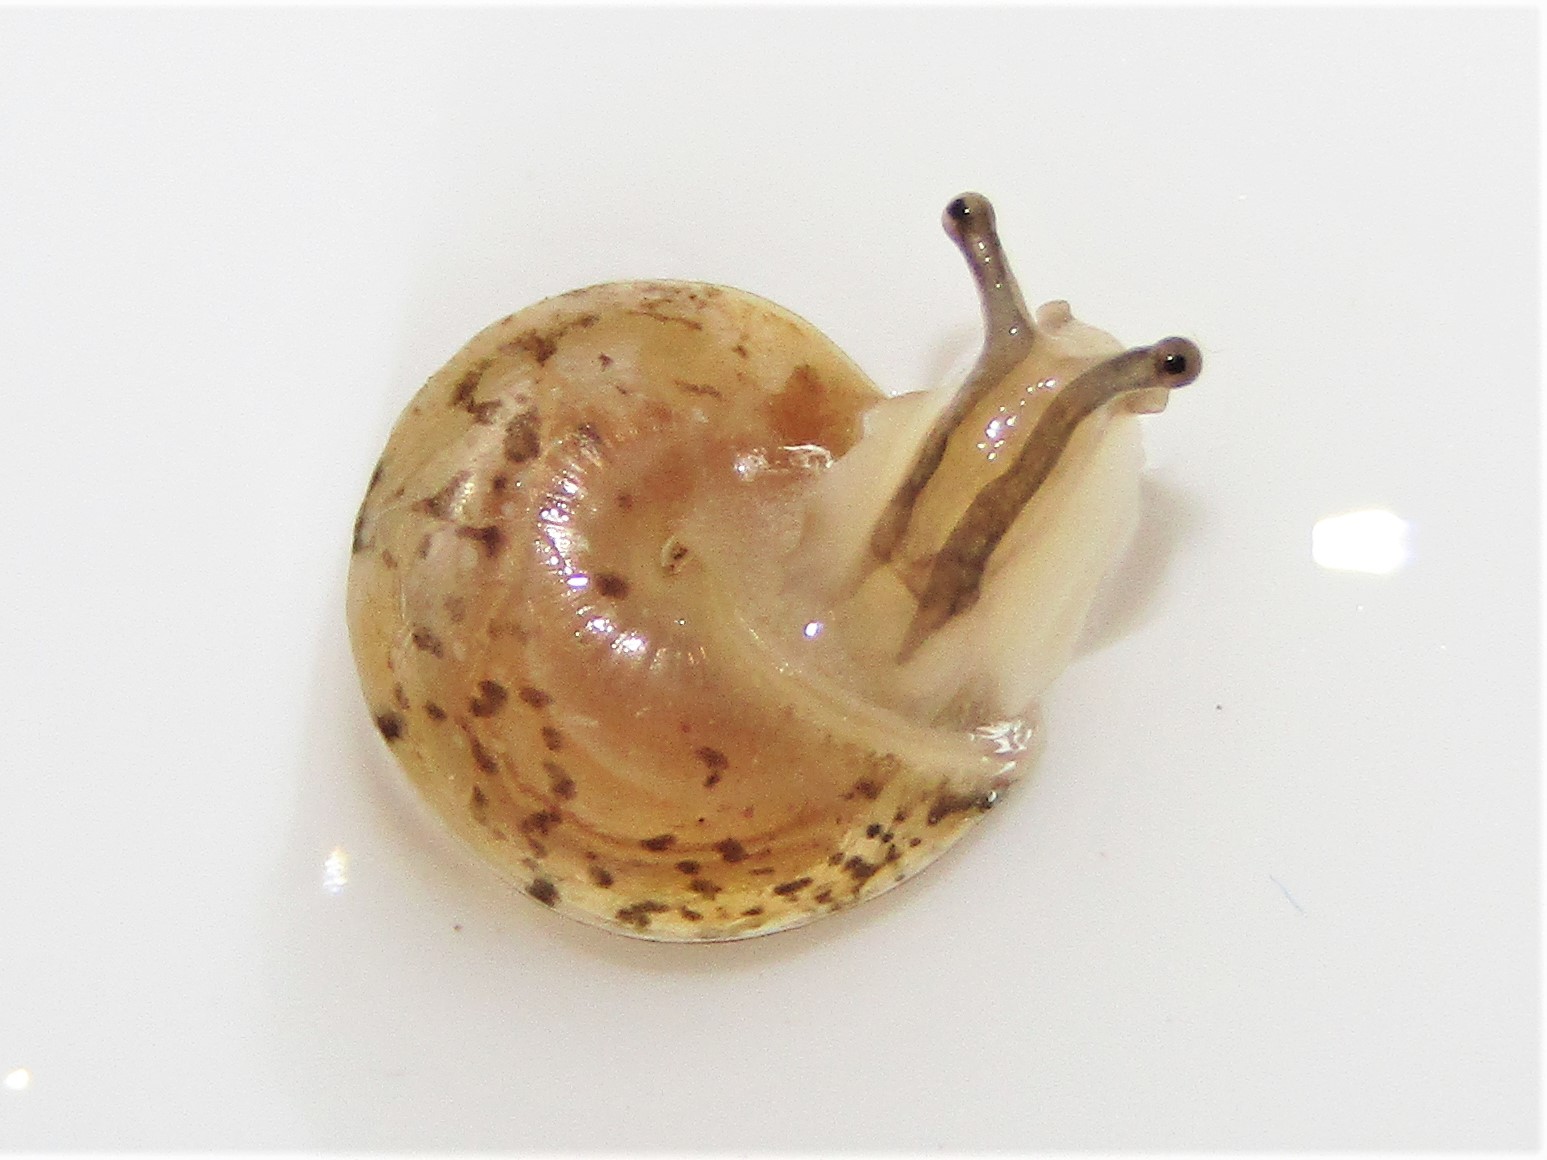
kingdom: Animalia
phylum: Mollusca
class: Gastropoda
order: Stylommatophora
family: Hygromiidae
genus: Hygromia
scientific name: Hygromia cinctella
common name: Girdled snail
